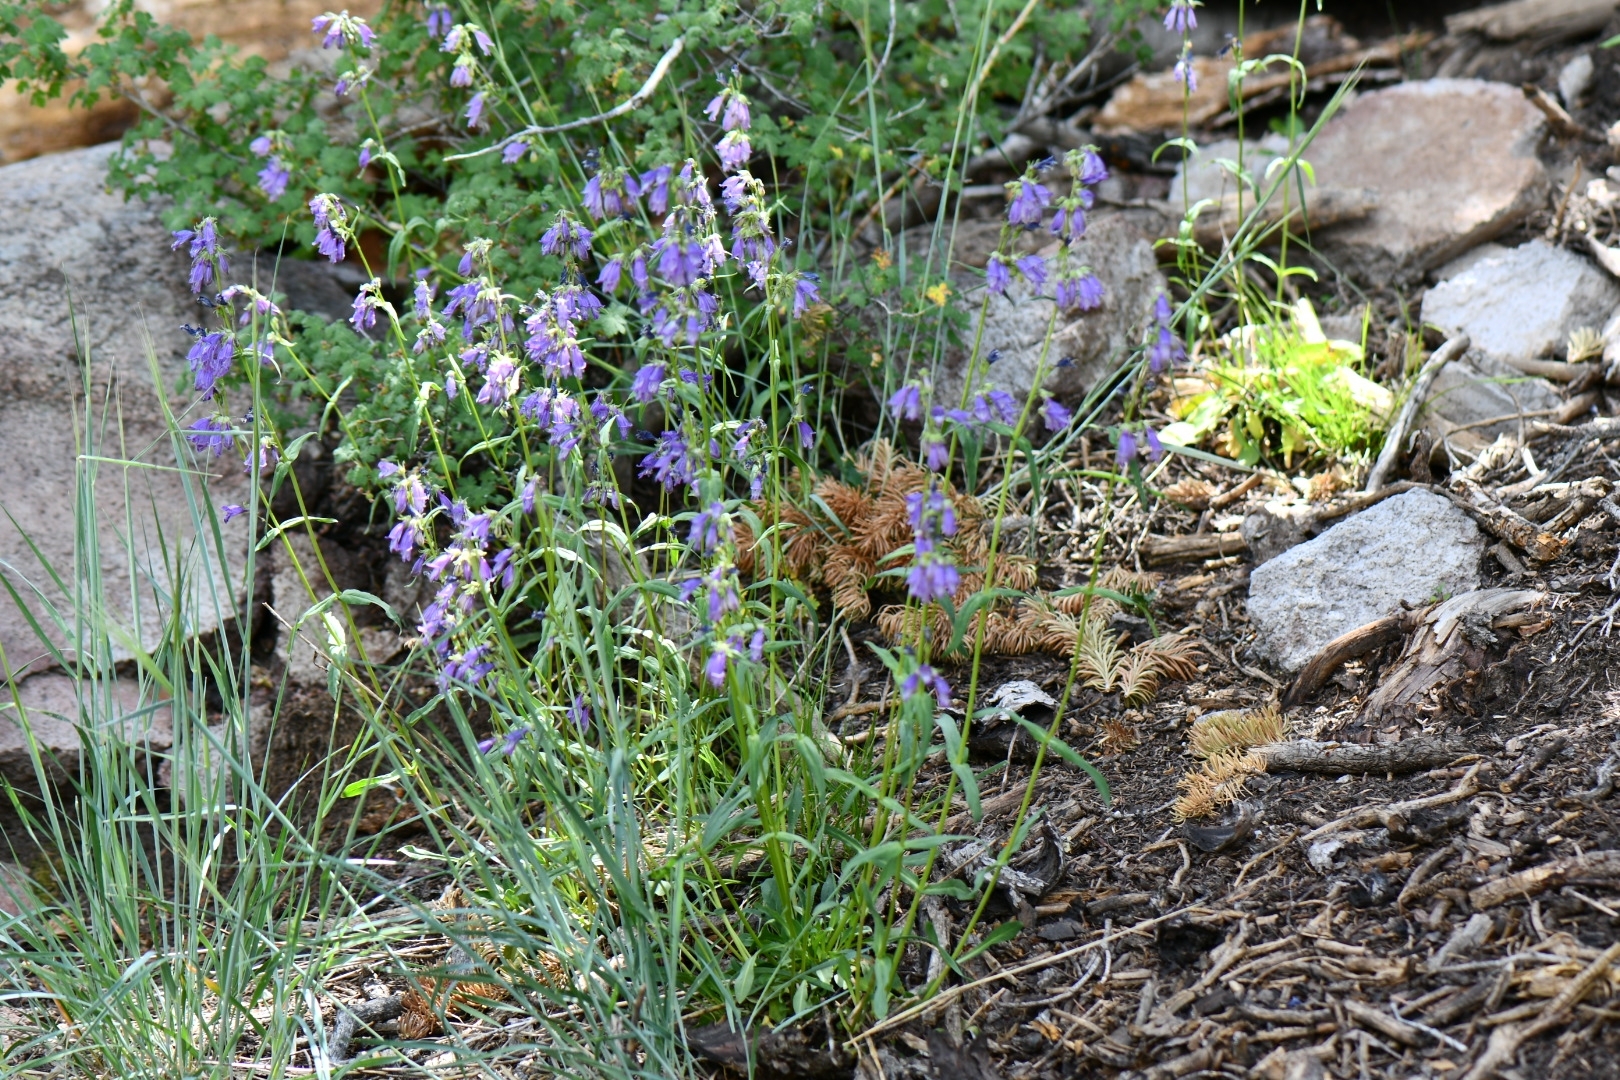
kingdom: Plantae
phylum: Tracheophyta
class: Magnoliopsida
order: Lamiales
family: Plantaginaceae
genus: Penstemon
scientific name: Penstemon whippleanus
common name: Whipple's penstemon
